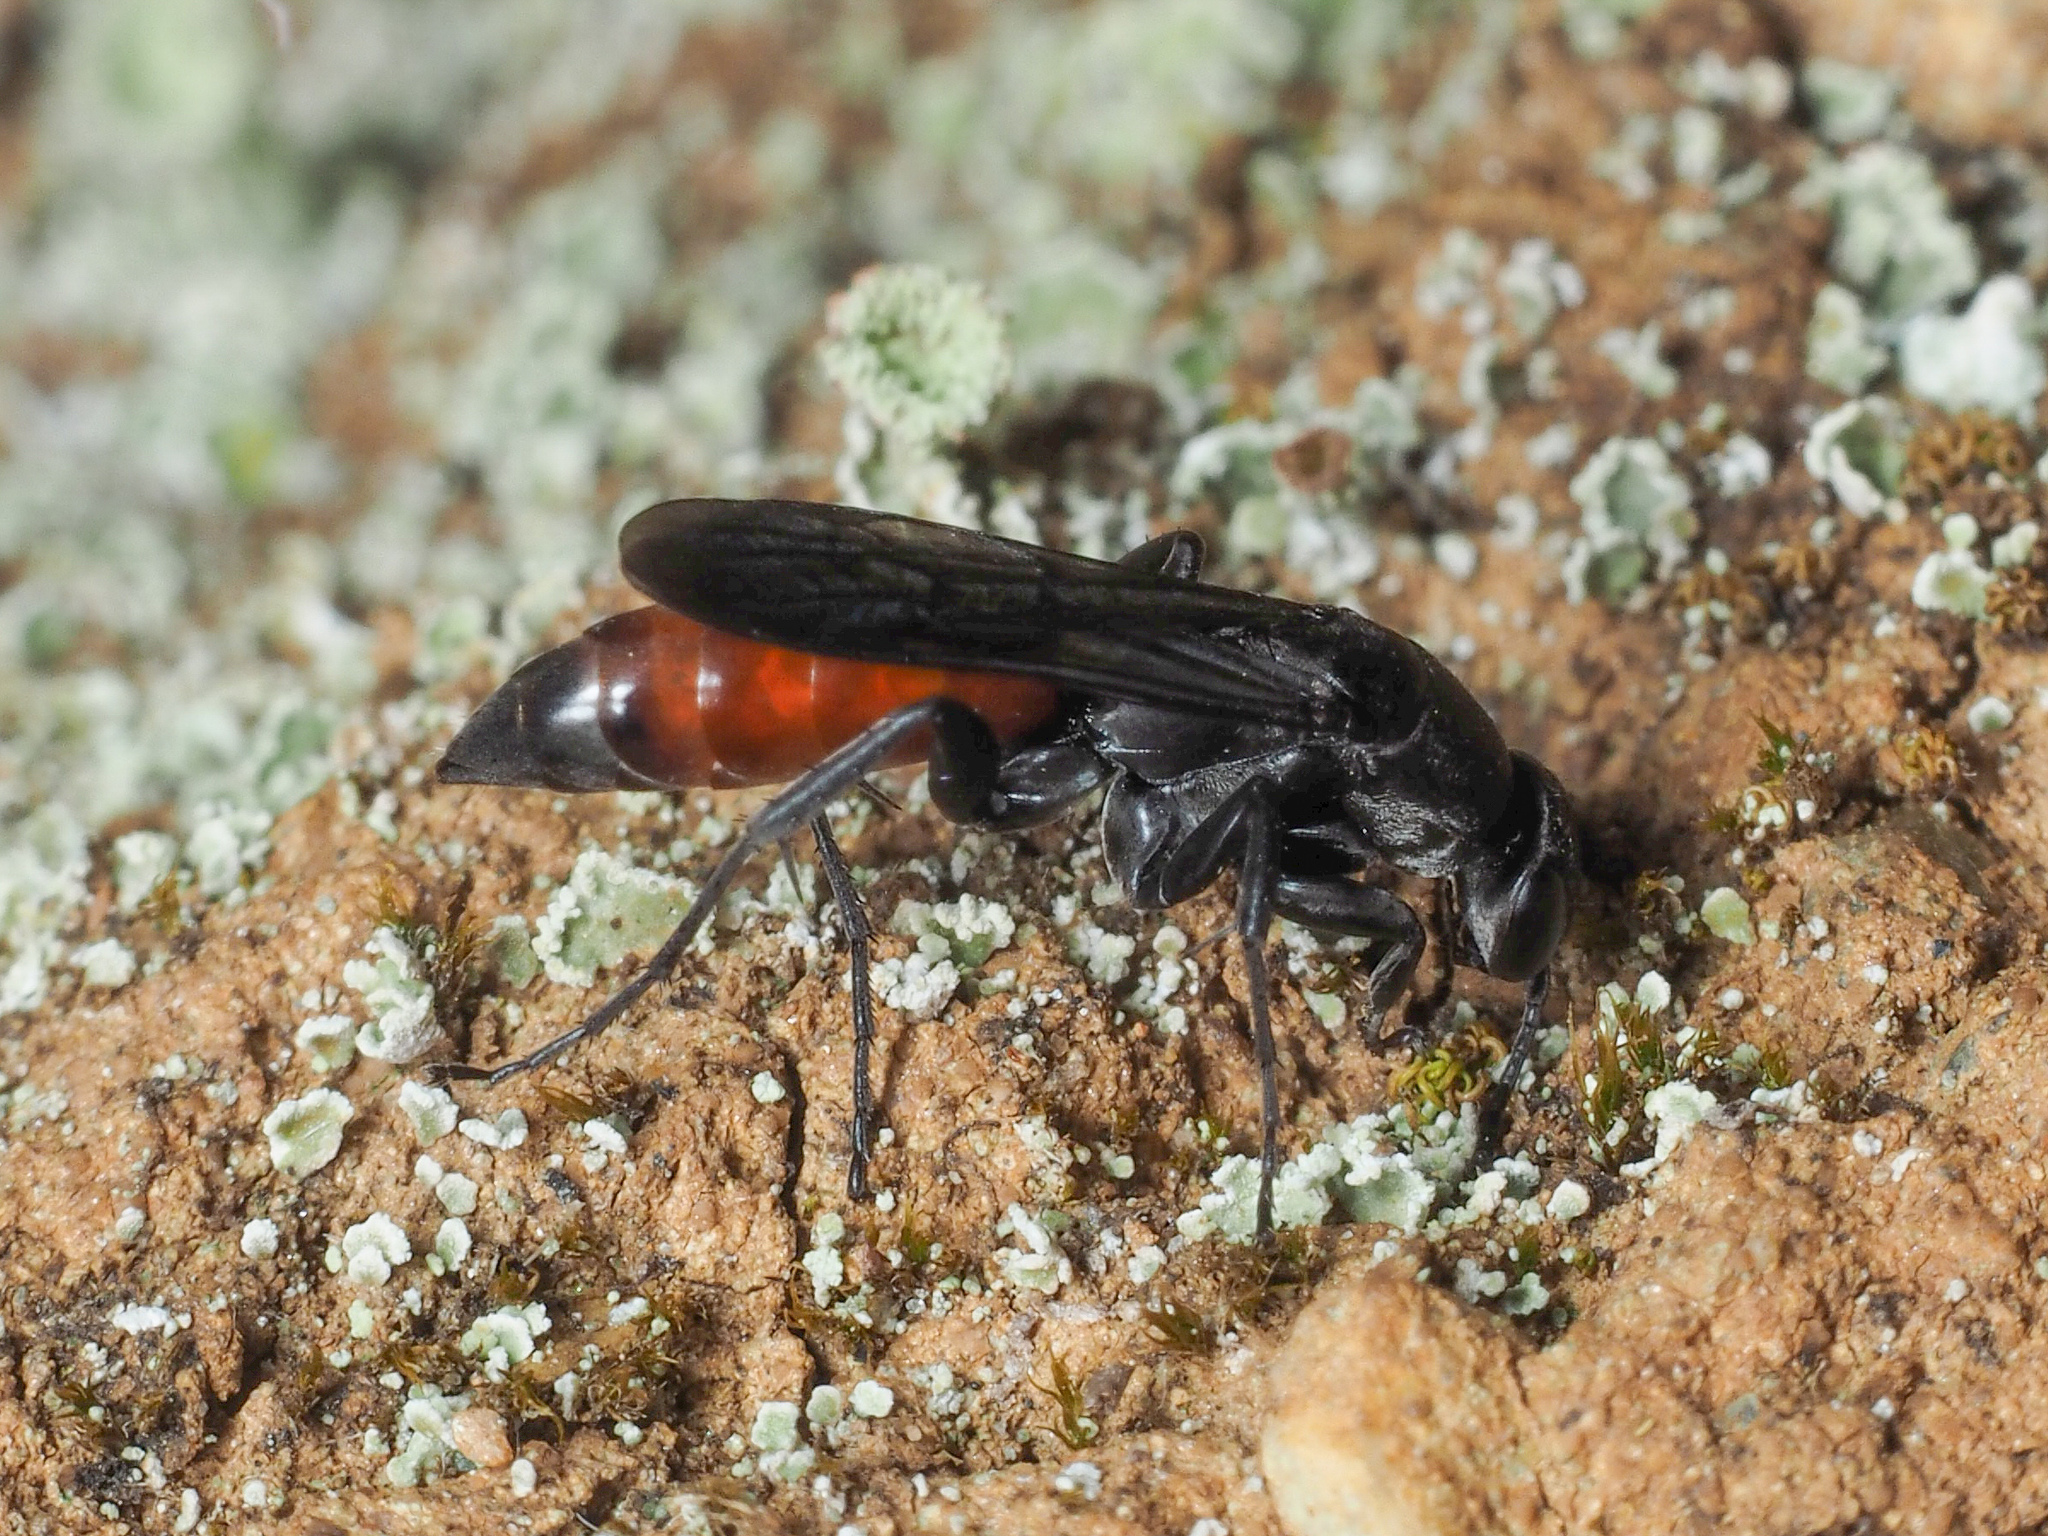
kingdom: Animalia
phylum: Arthropoda
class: Insecta
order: Hymenoptera
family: Pompilidae
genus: Aporus
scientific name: Aporus bicolor
